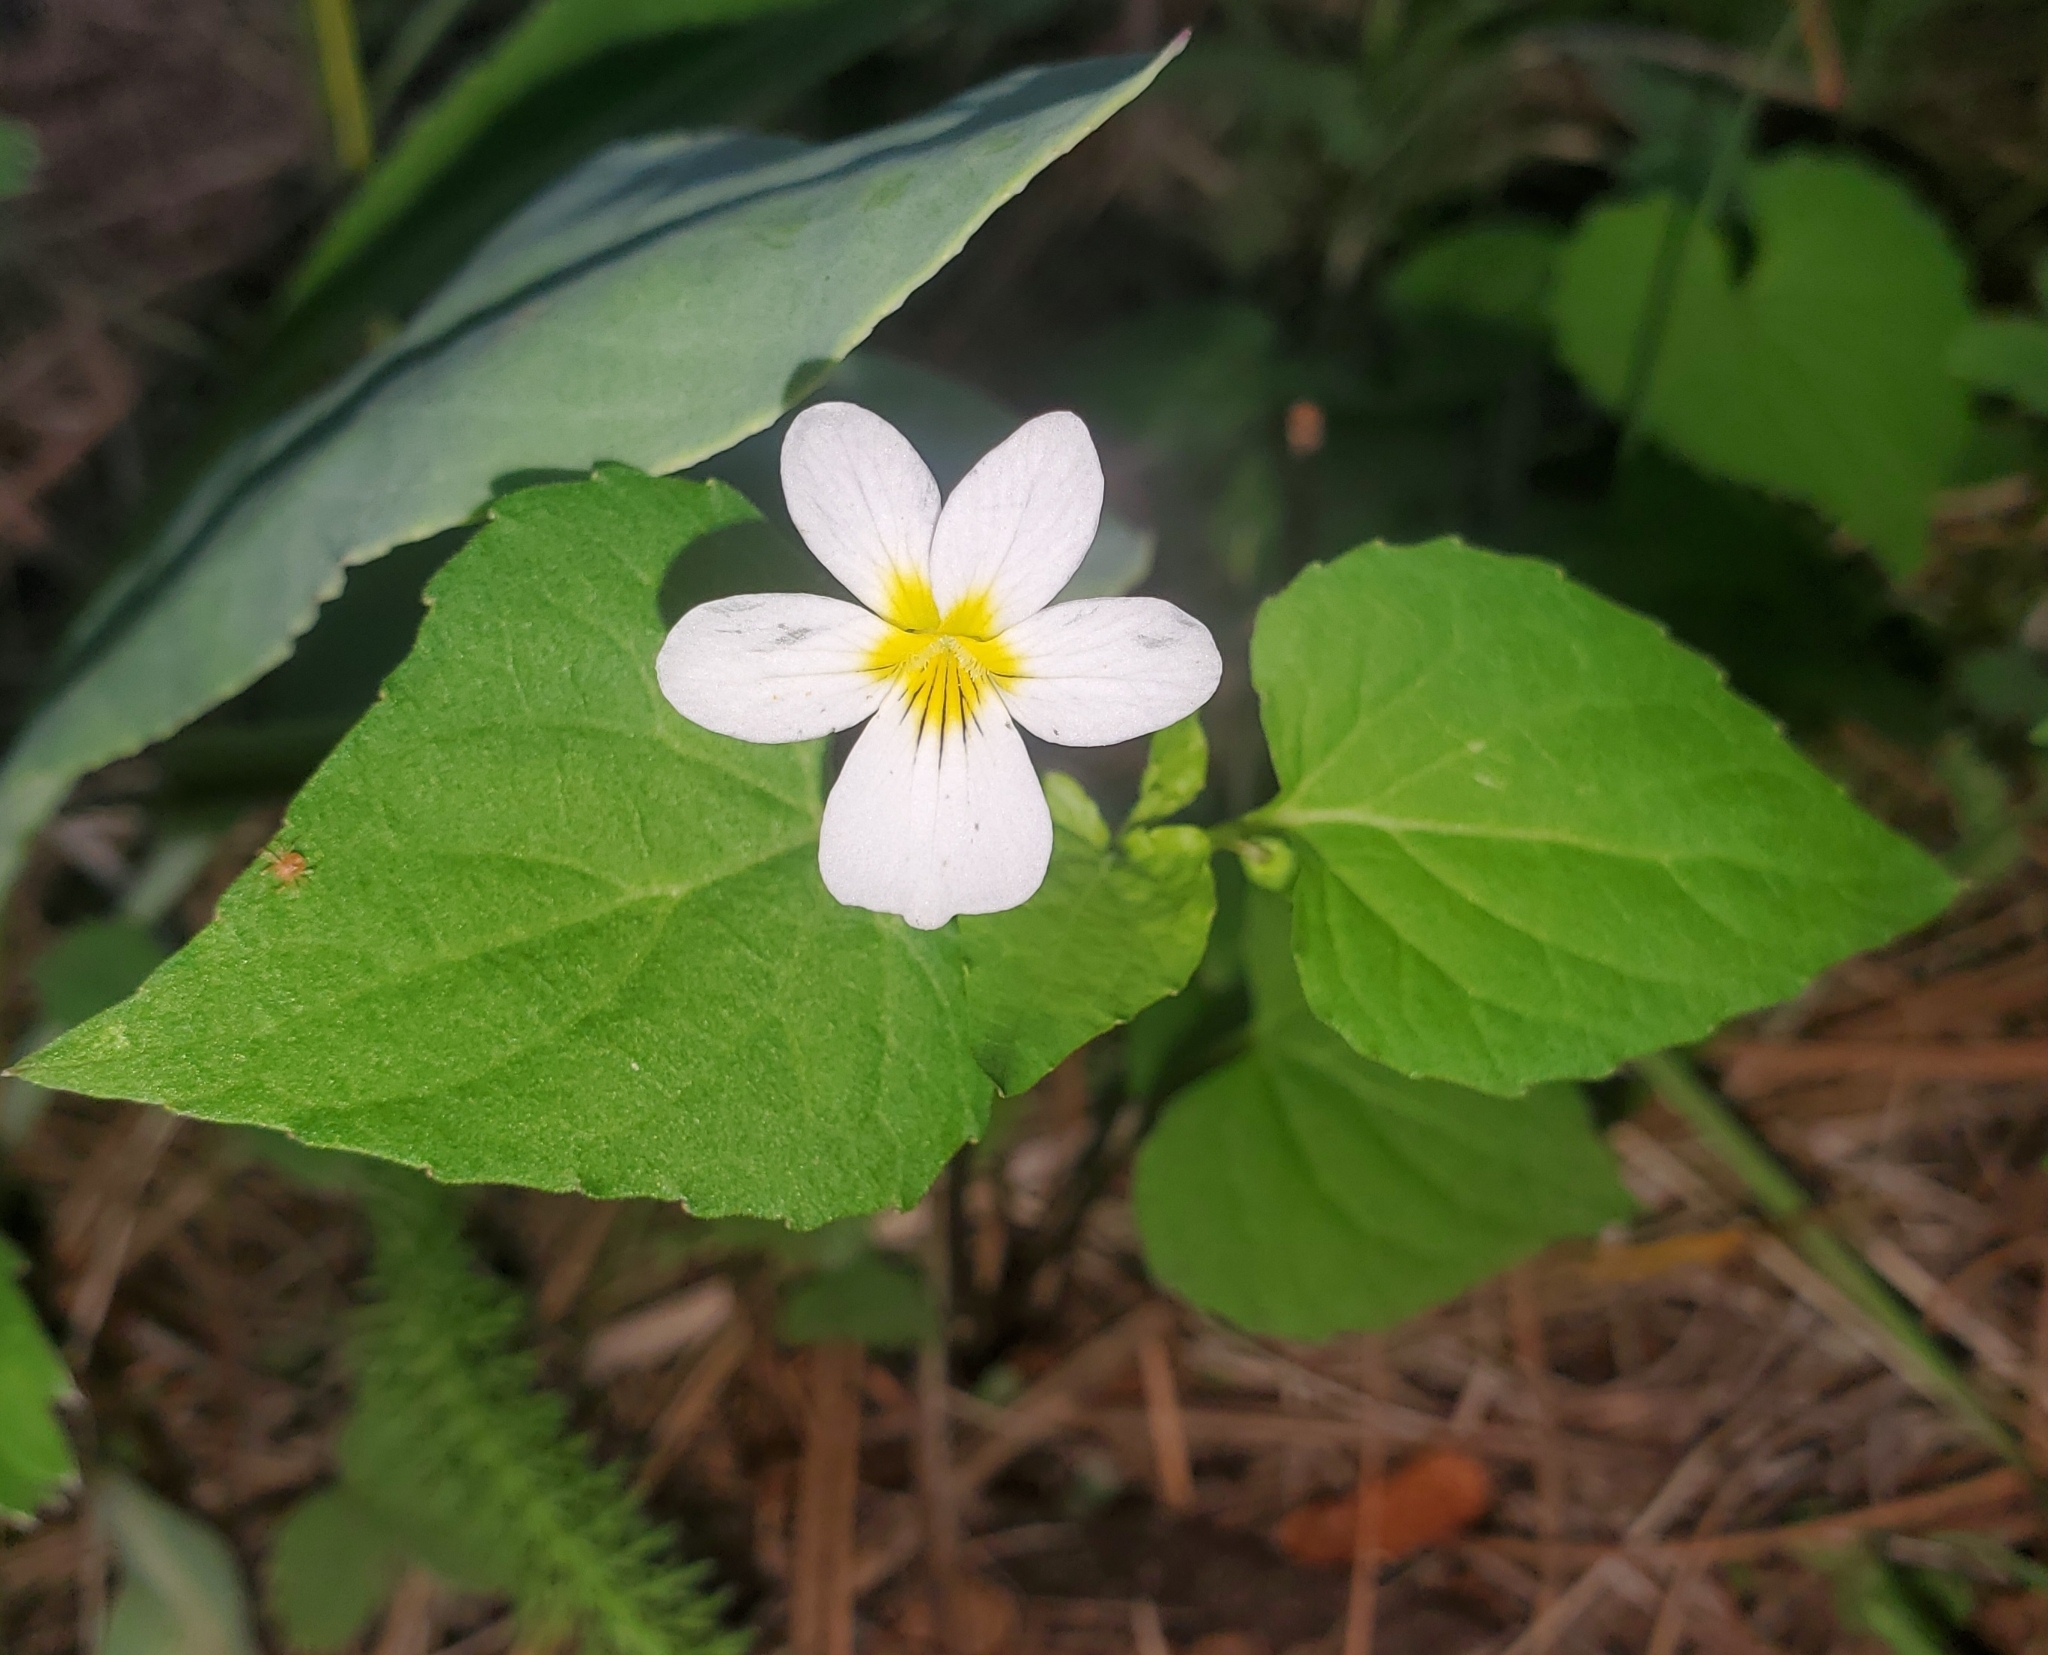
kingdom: Plantae
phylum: Tracheophyta
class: Magnoliopsida
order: Malpighiales
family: Violaceae
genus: Viola
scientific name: Viola canadensis
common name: Canada violet
